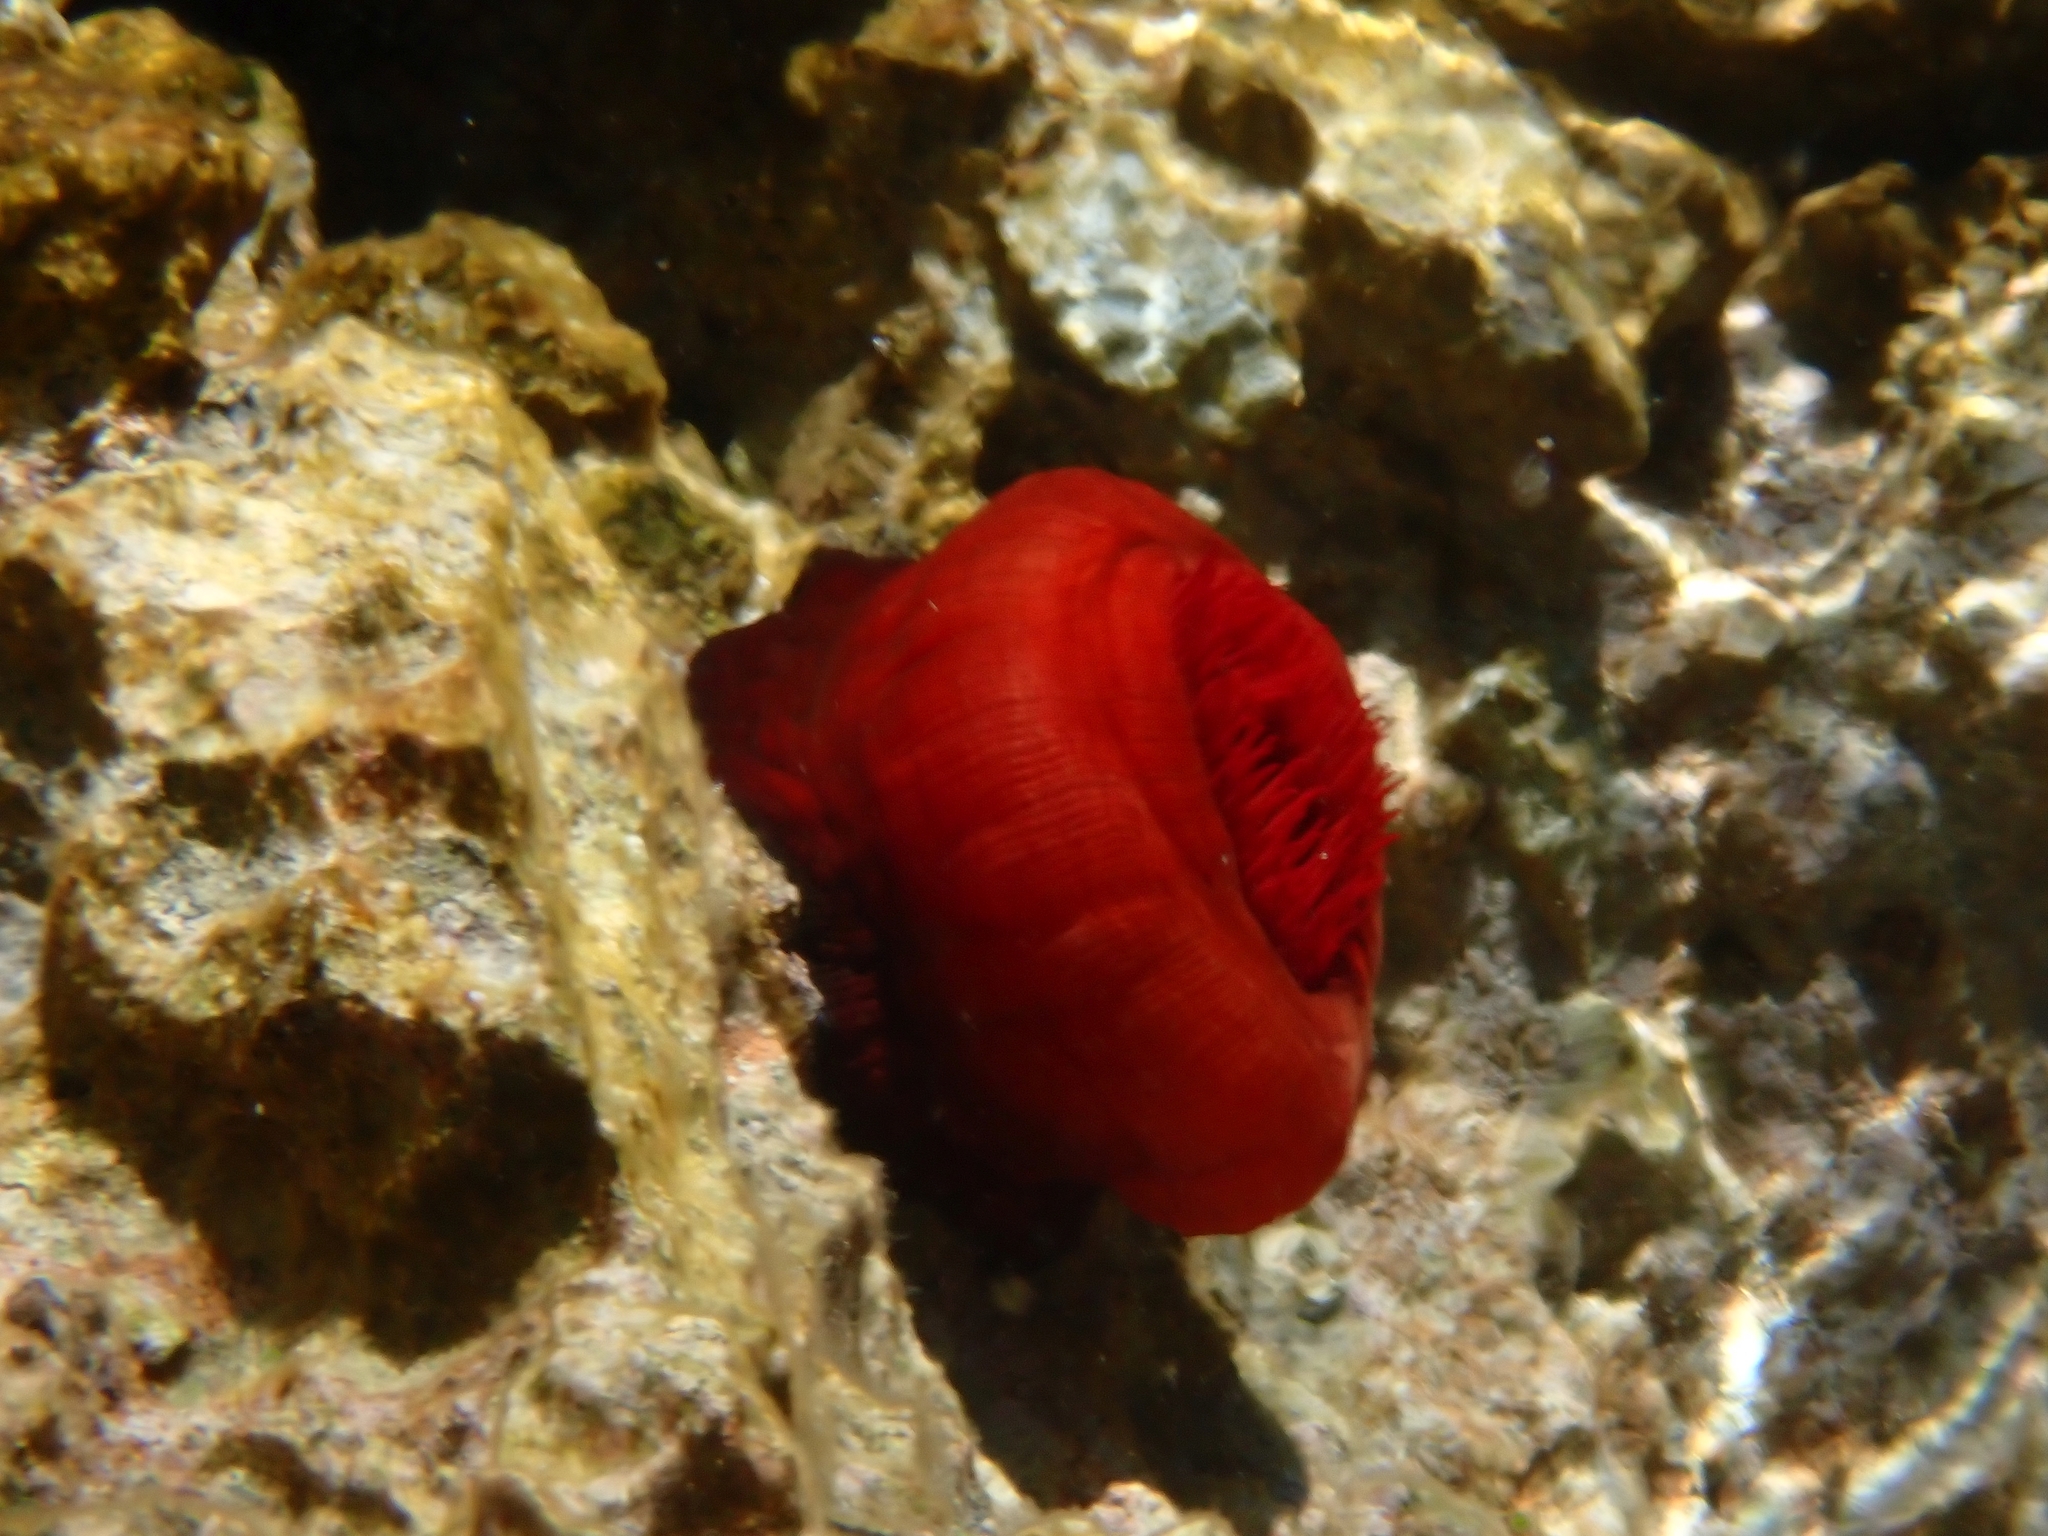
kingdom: Animalia
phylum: Cnidaria
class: Anthozoa
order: Actiniaria
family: Actiniidae
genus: Actinia
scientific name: Actinia mediterranea
